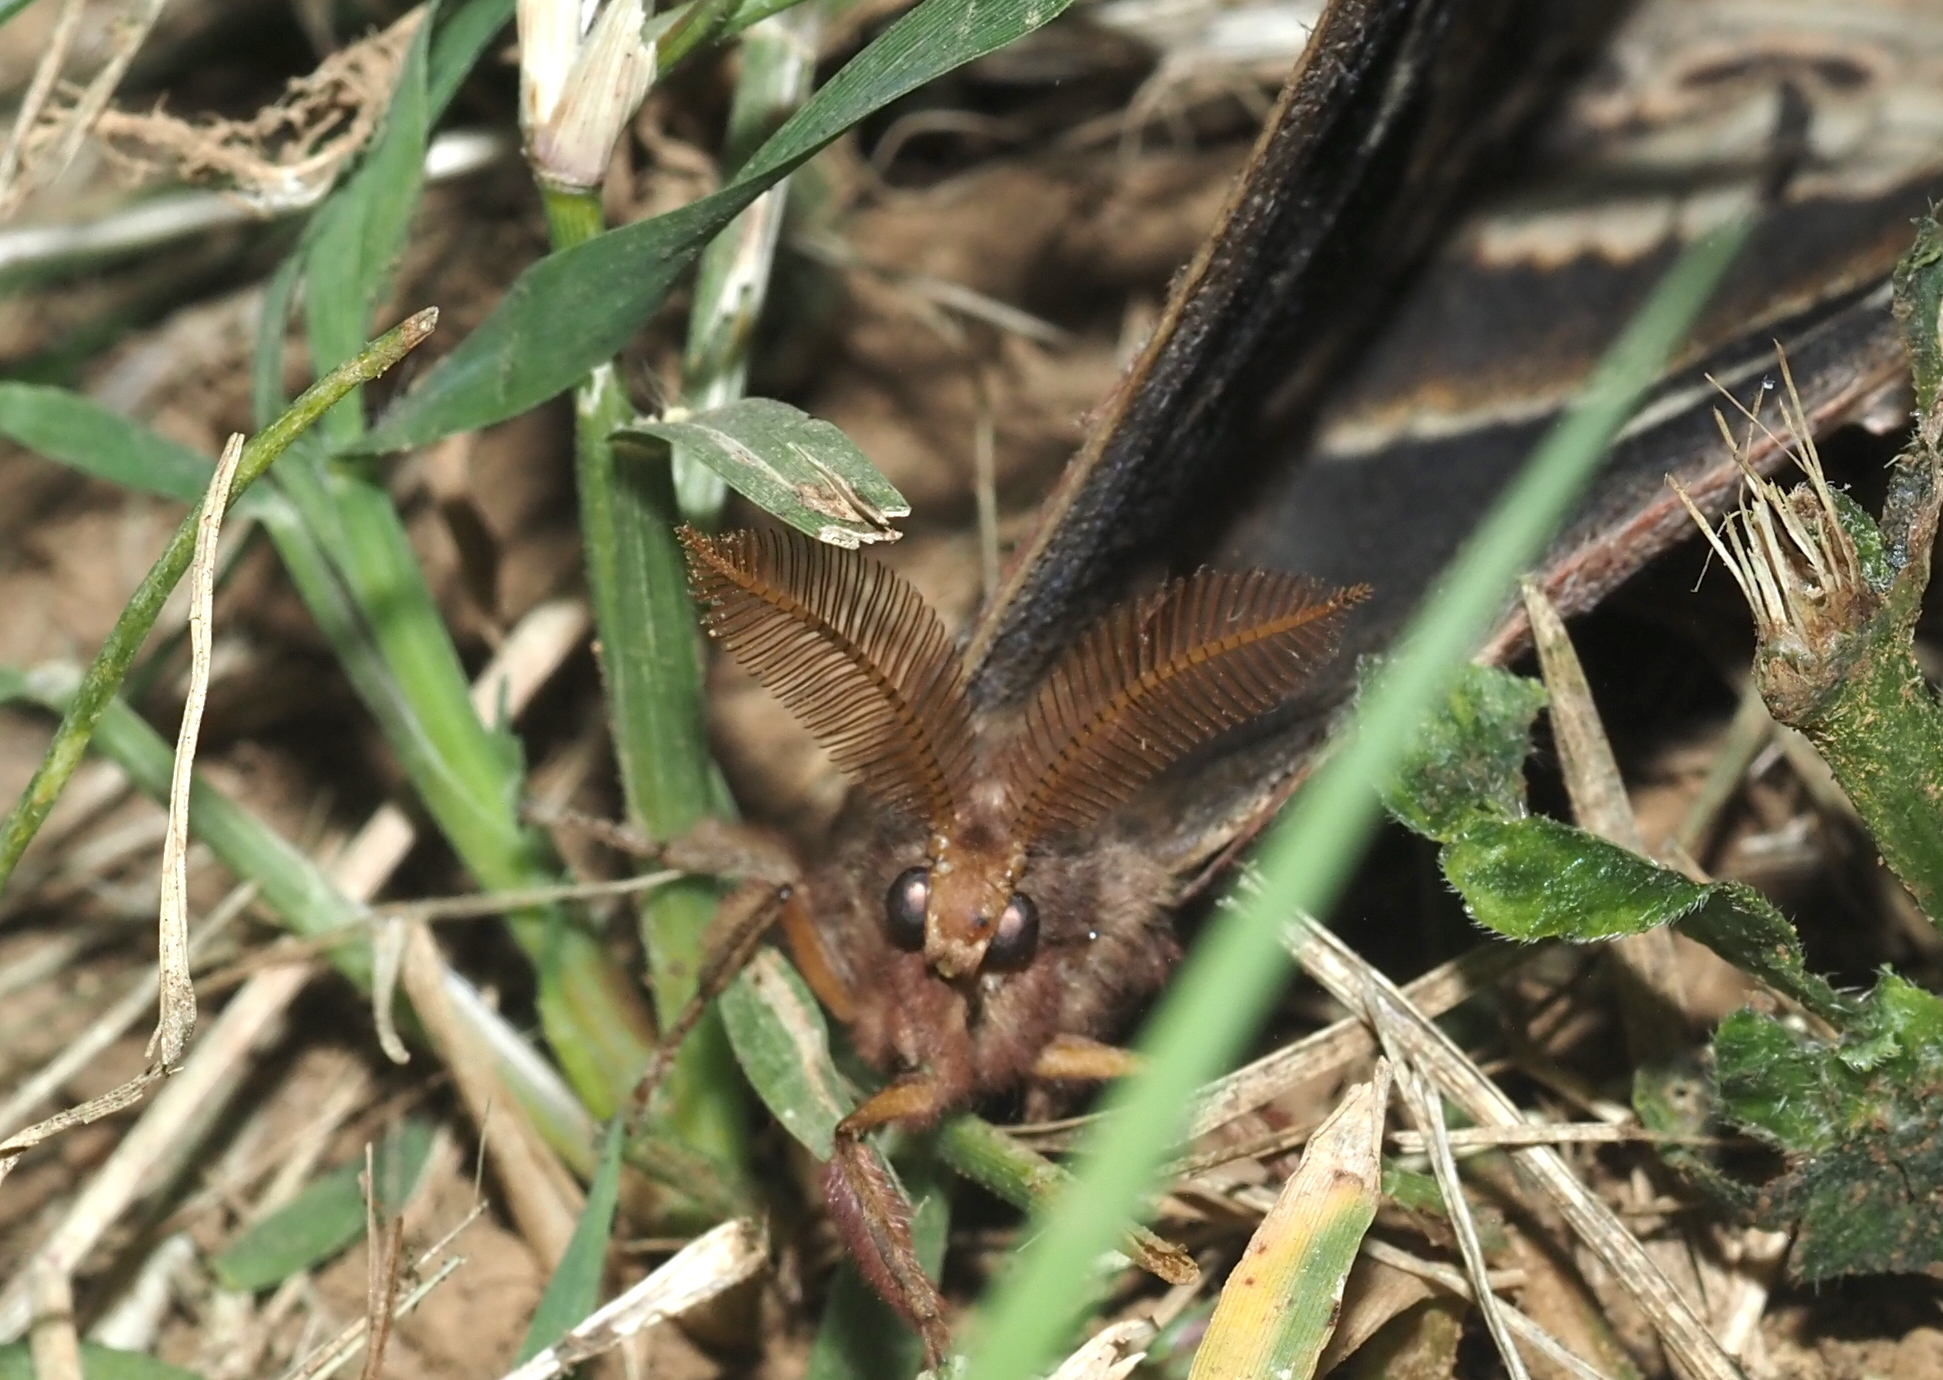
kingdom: Animalia
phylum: Arthropoda
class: Insecta
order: Lepidoptera
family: Saturniidae
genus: Callosamia
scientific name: Callosamia angulifera
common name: Tulip tree silkmoth
